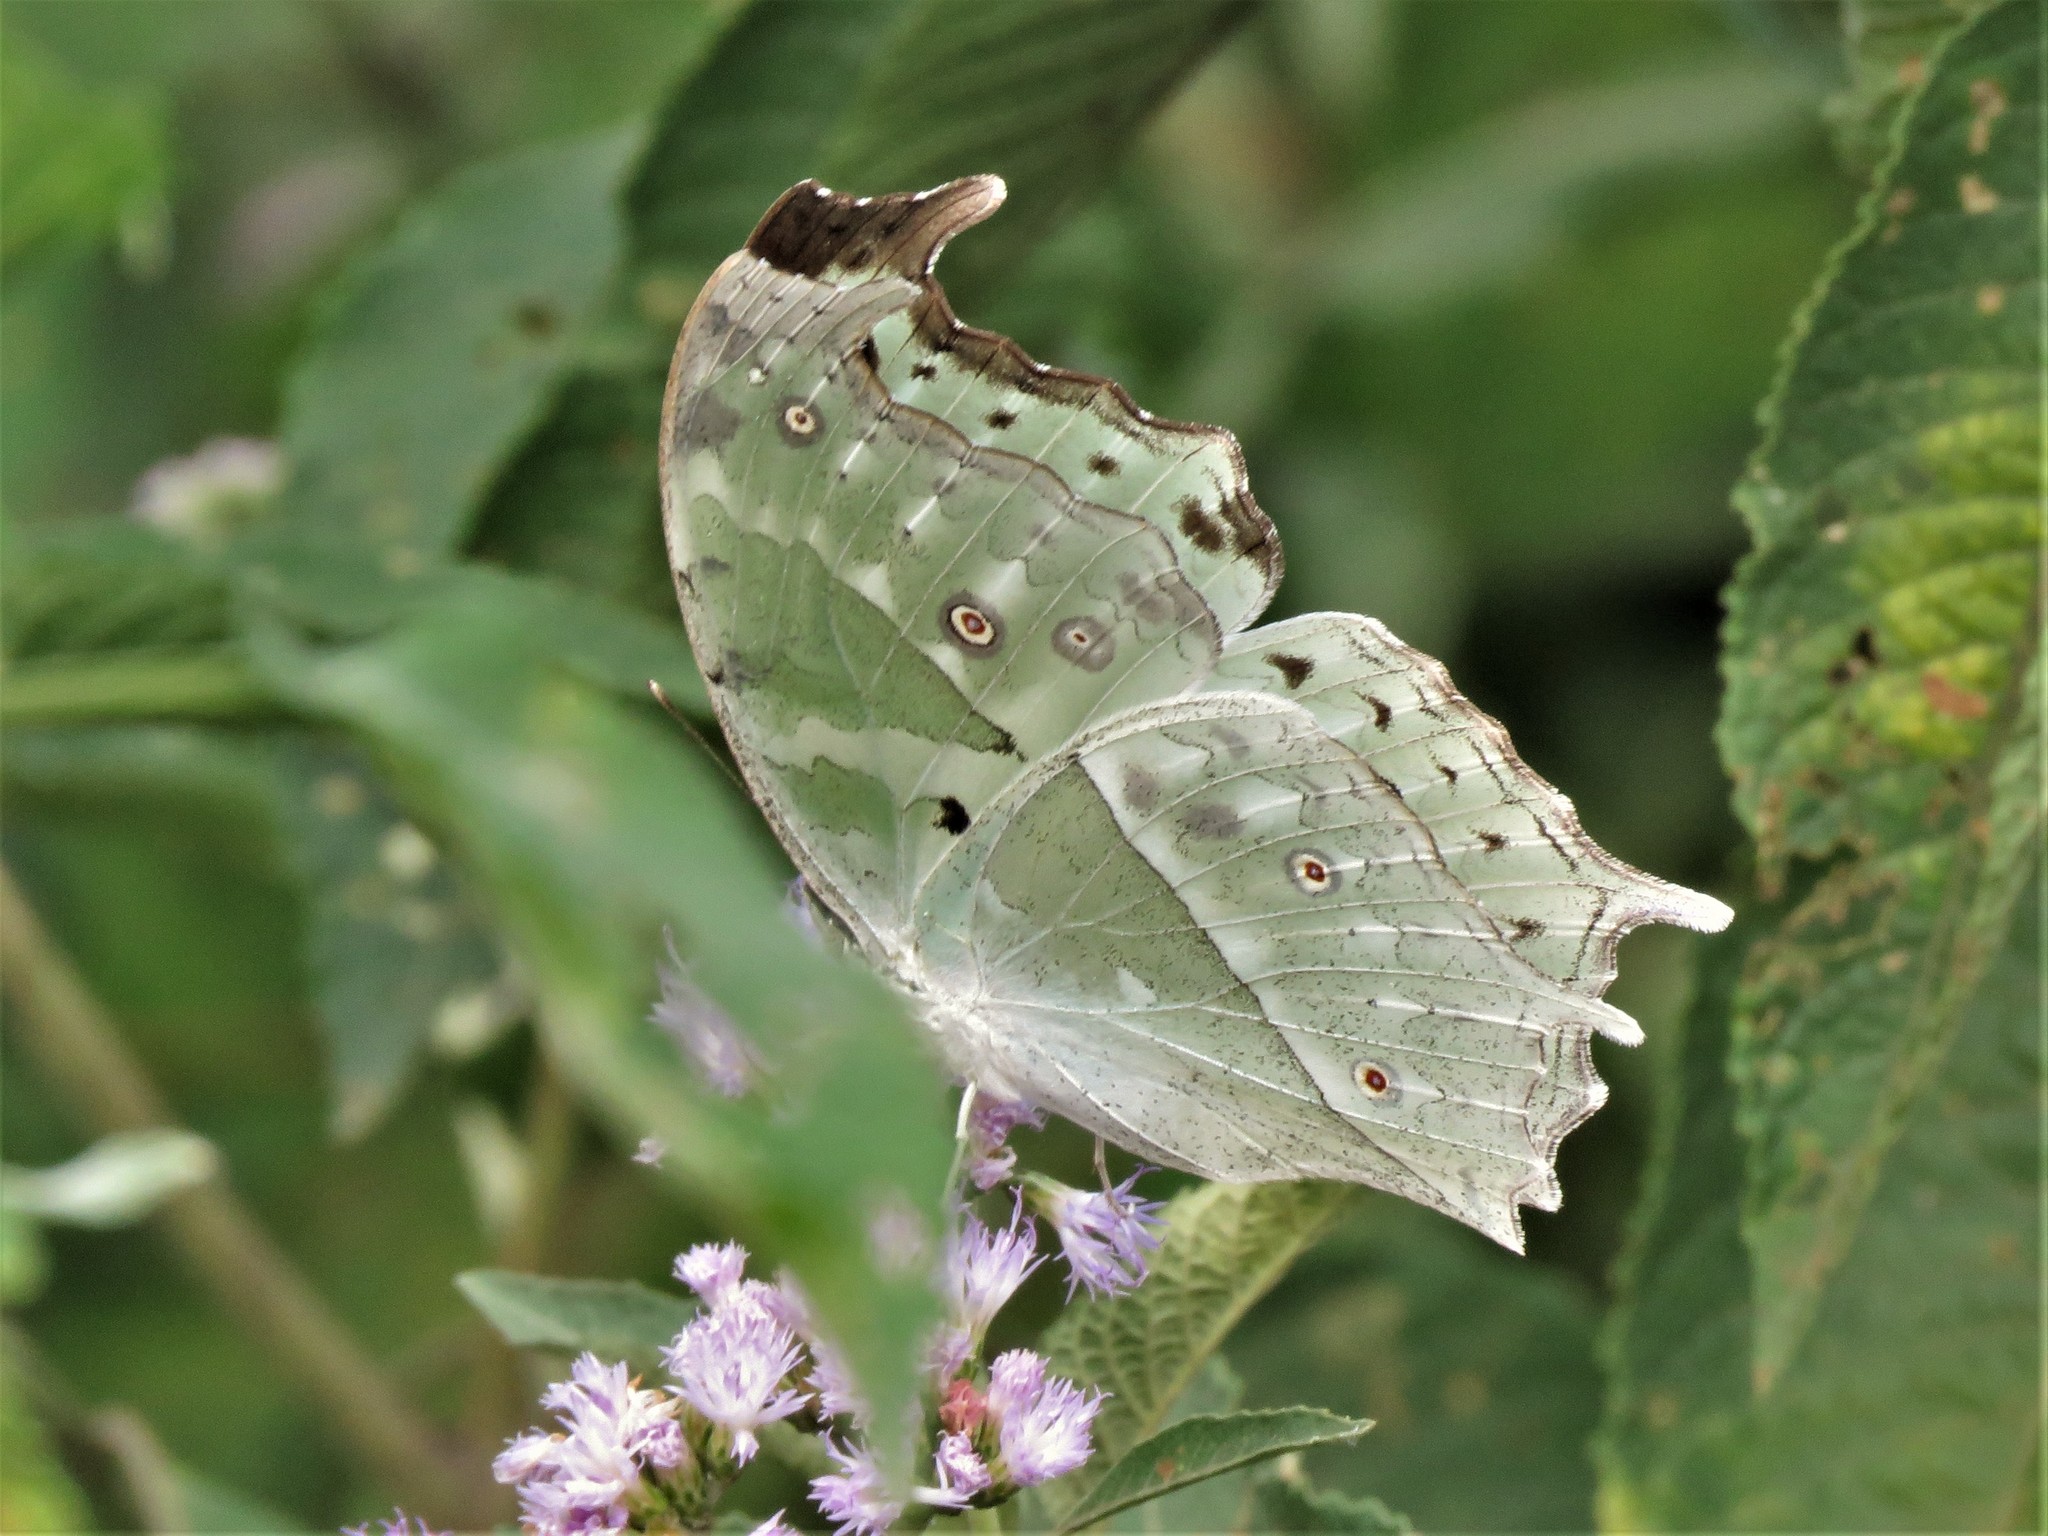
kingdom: Animalia
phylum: Arthropoda
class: Insecta
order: Lepidoptera
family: Nymphalidae
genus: Salamis
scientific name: Salamis Protogoniomorpha parhassus
